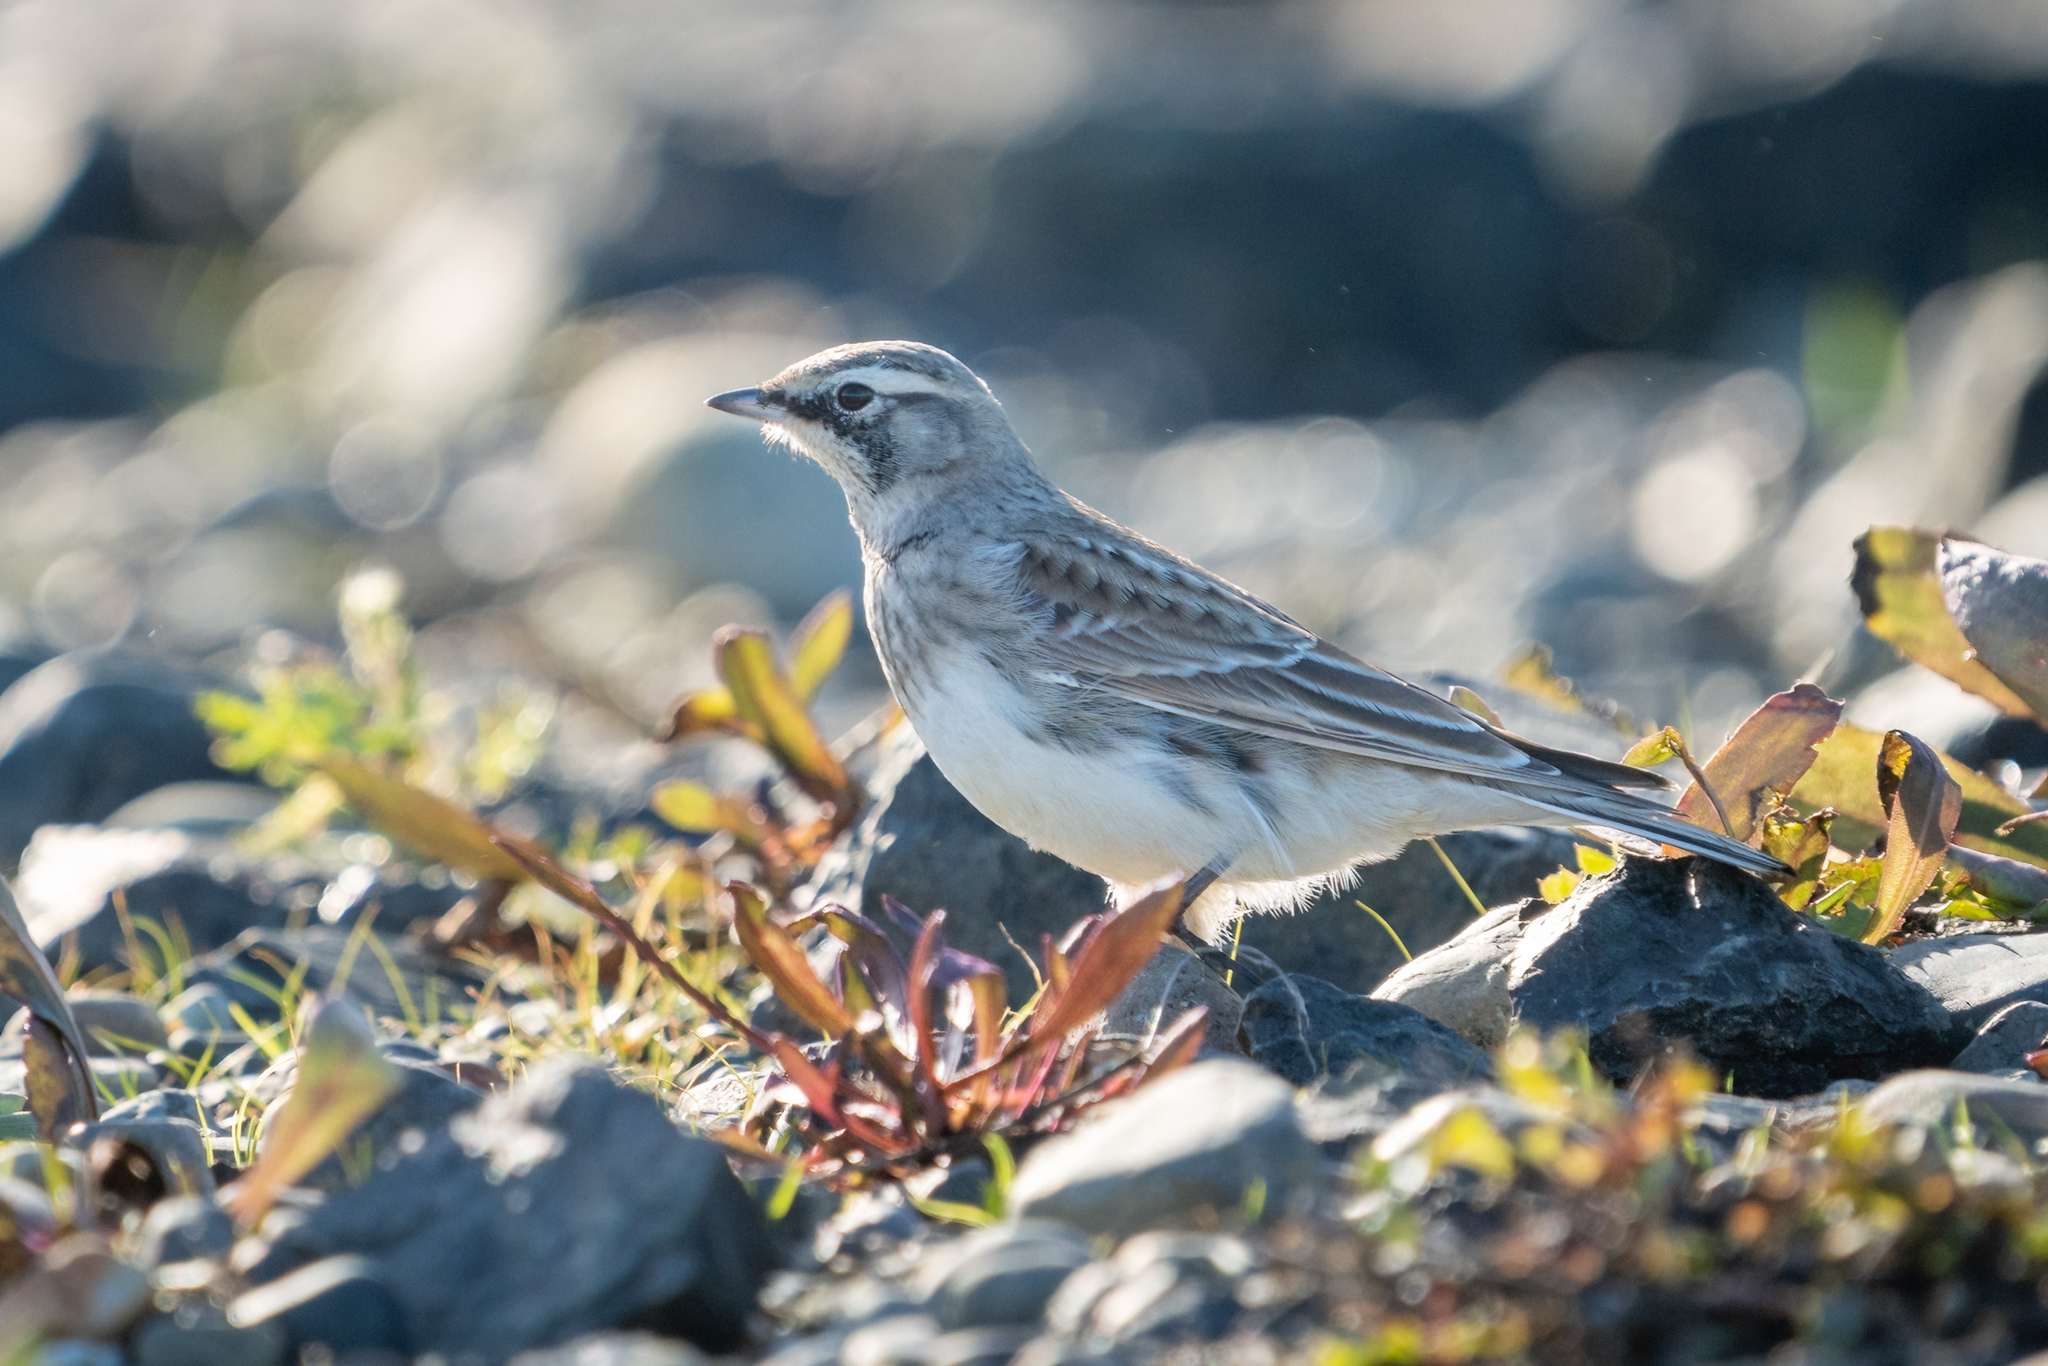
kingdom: Animalia
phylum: Chordata
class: Aves
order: Passeriformes
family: Alaudidae
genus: Eremophila
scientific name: Eremophila alpestris
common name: Horned lark
